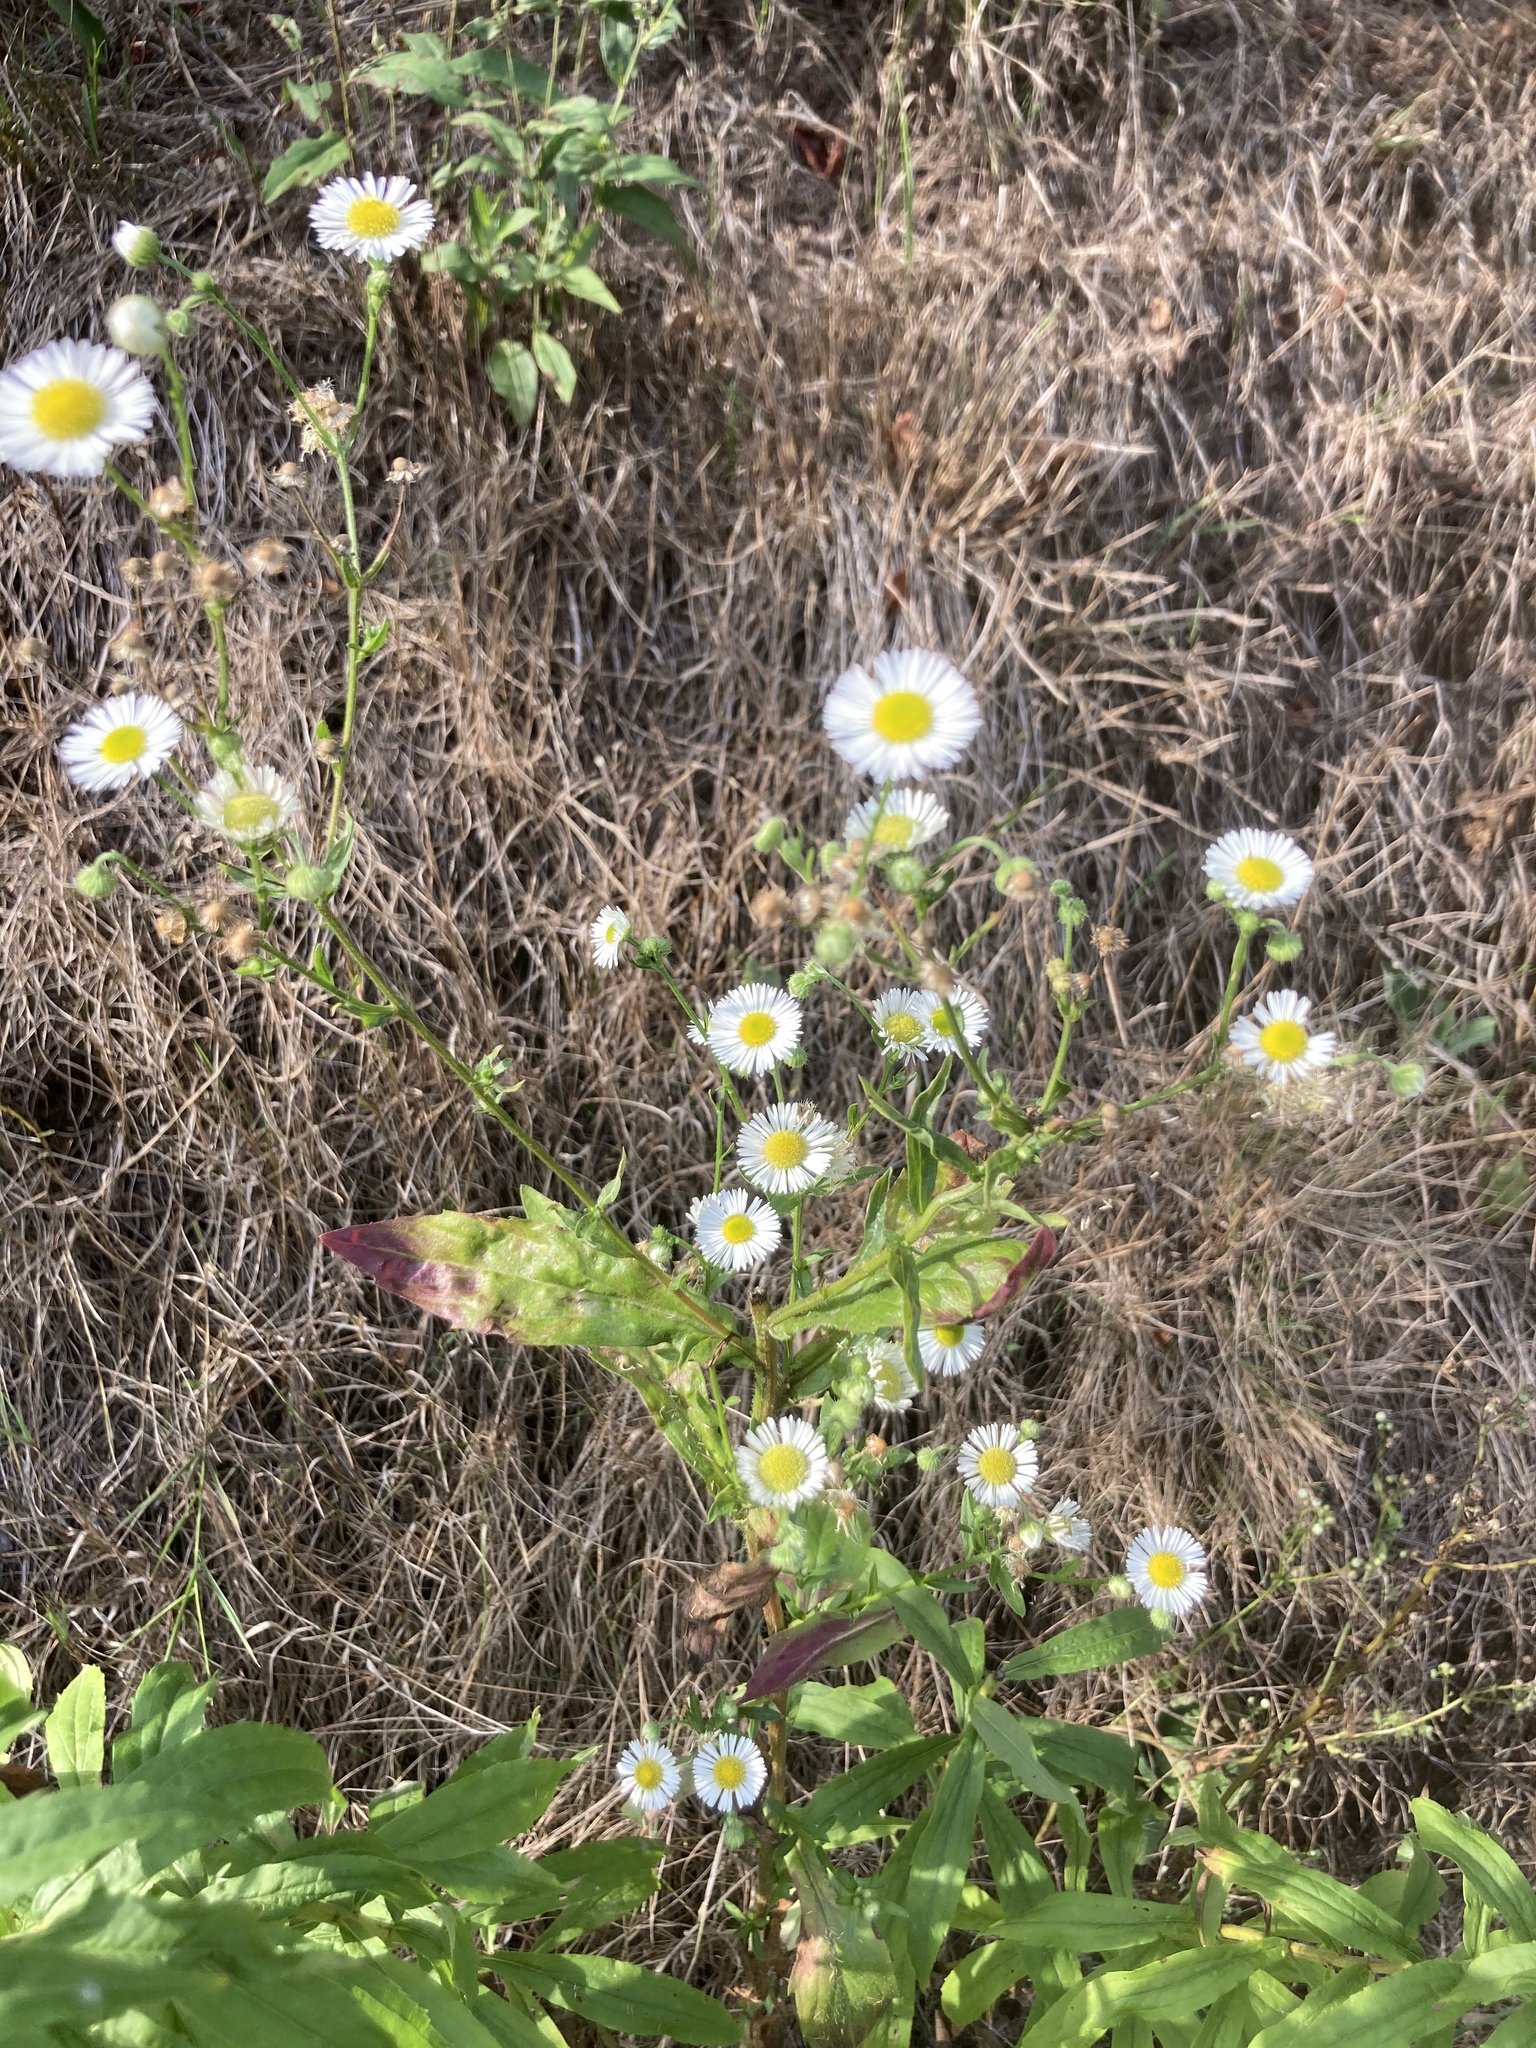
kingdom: Plantae
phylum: Tracheophyta
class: Magnoliopsida
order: Asterales
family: Asteraceae
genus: Erigeron
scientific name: Erigeron annuus
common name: Tall fleabane
